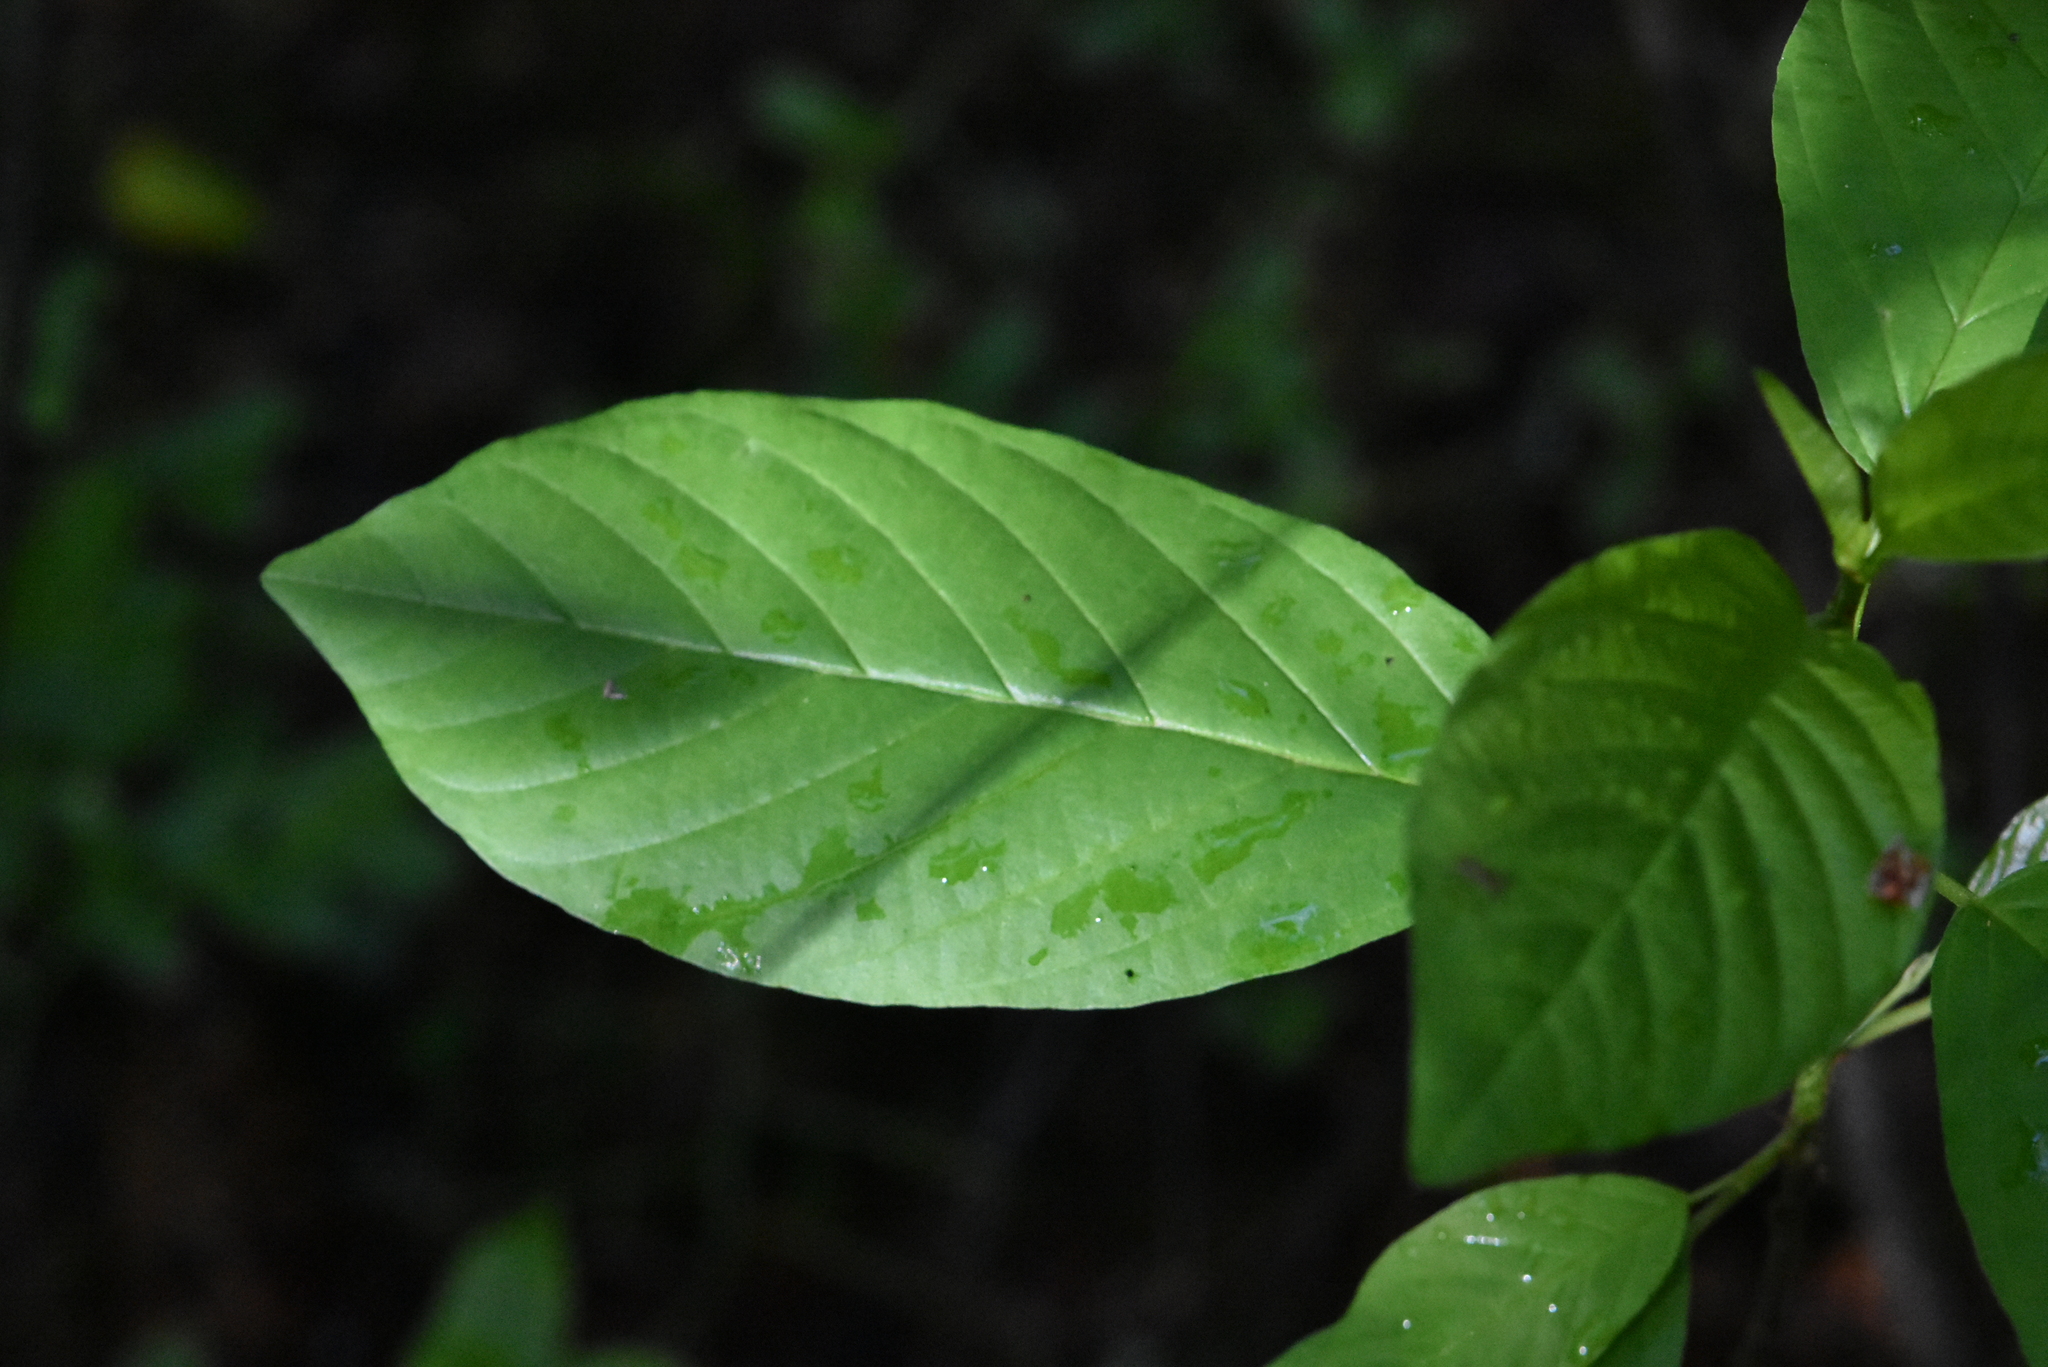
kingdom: Plantae
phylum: Tracheophyta
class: Magnoliopsida
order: Rosales
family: Rhamnaceae
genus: Frangula
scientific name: Frangula alnus
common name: Alder buckthorn
